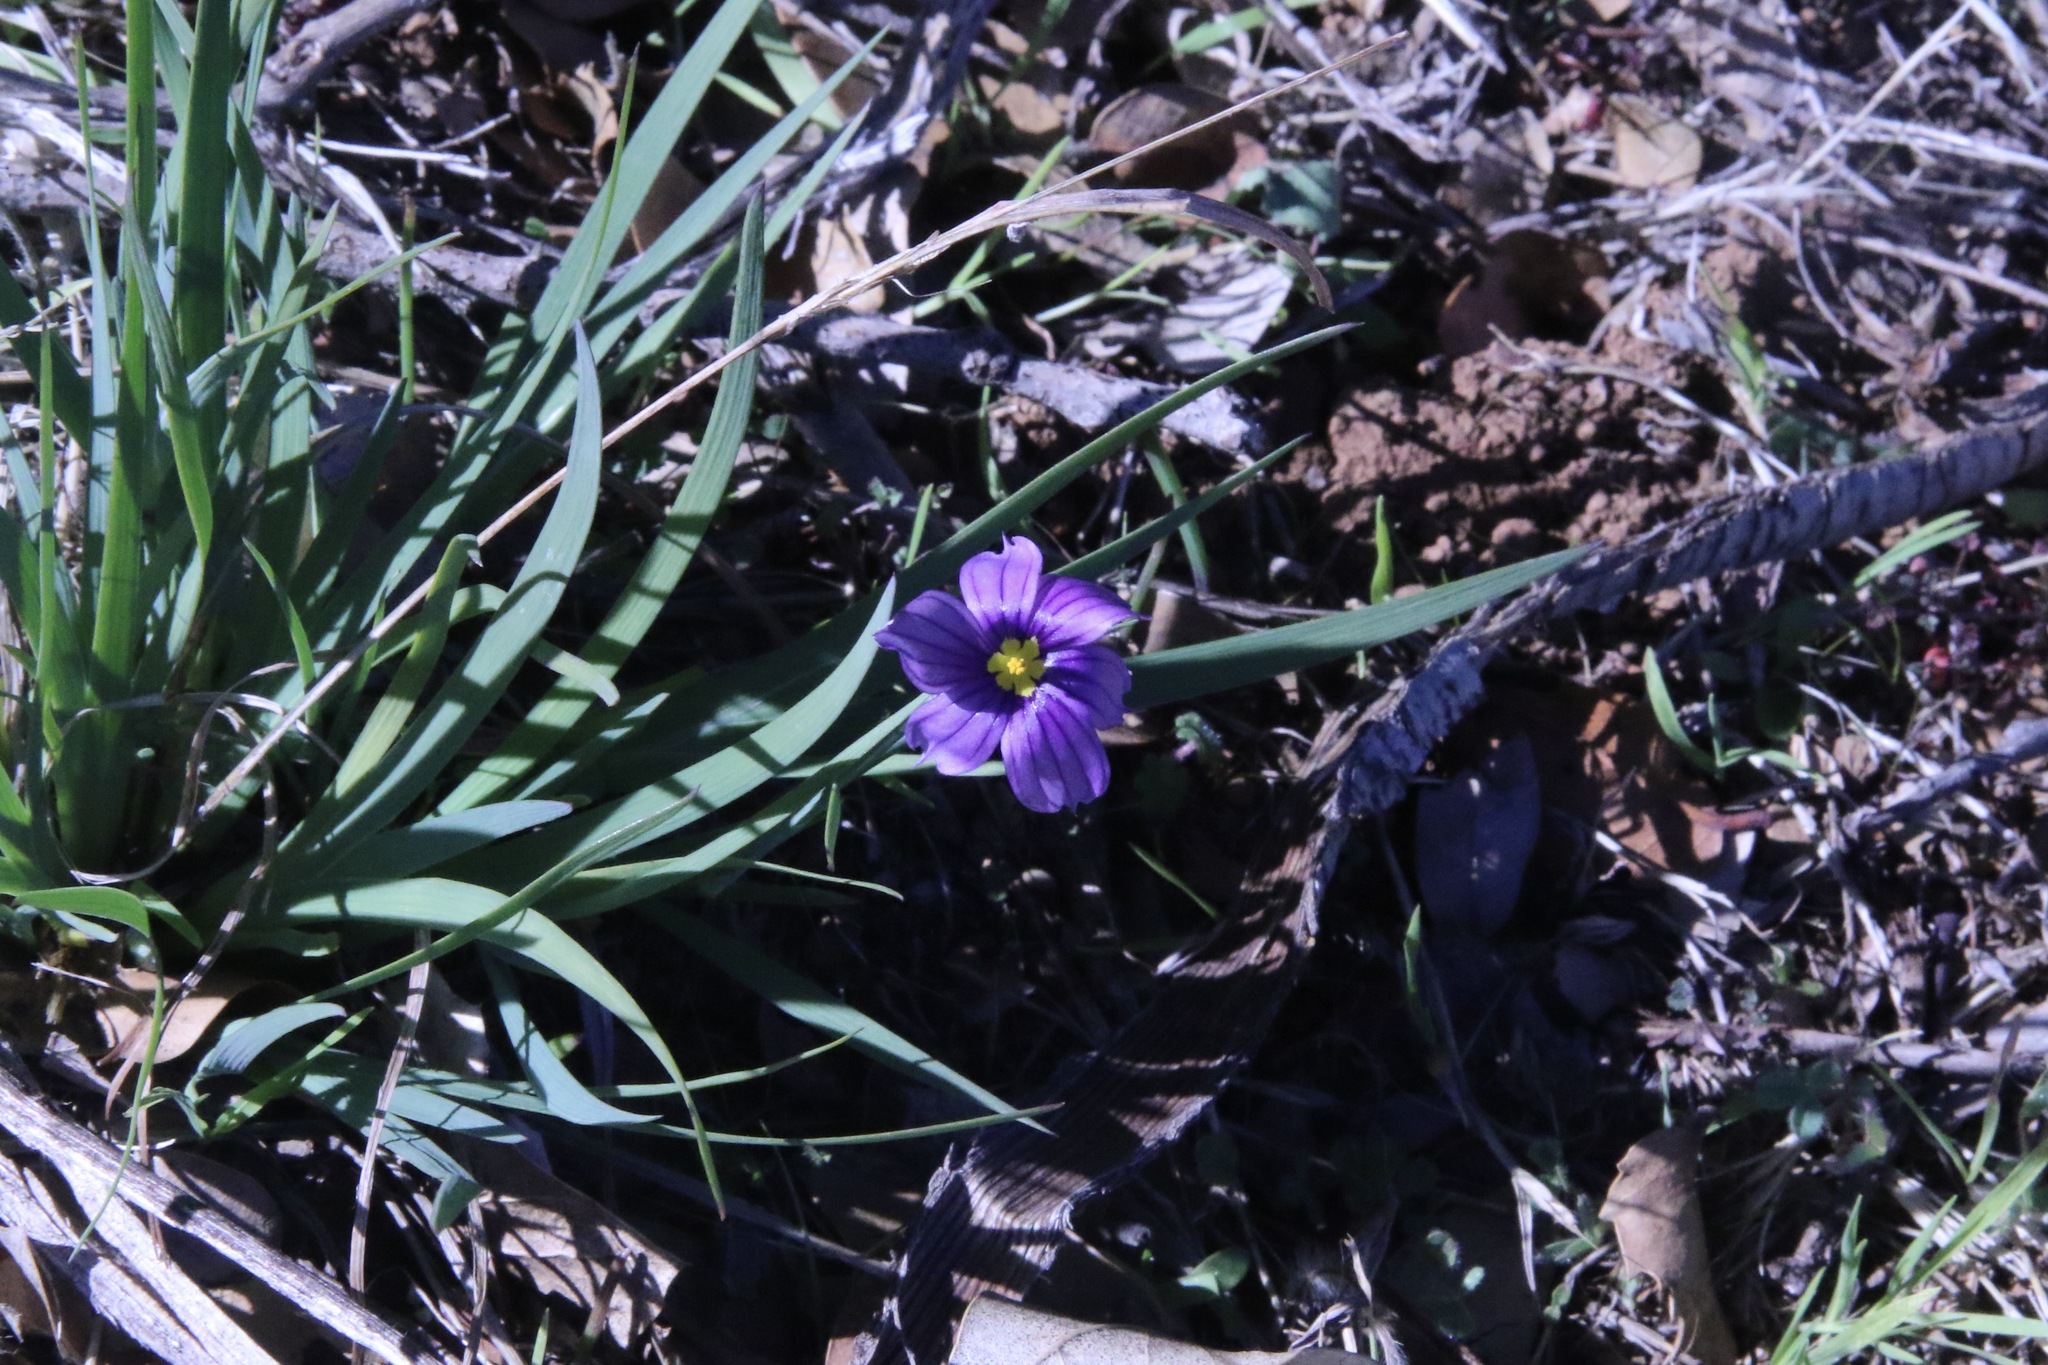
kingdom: Plantae
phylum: Tracheophyta
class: Liliopsida
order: Asparagales
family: Iridaceae
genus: Sisyrinchium
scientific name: Sisyrinchium bellum
